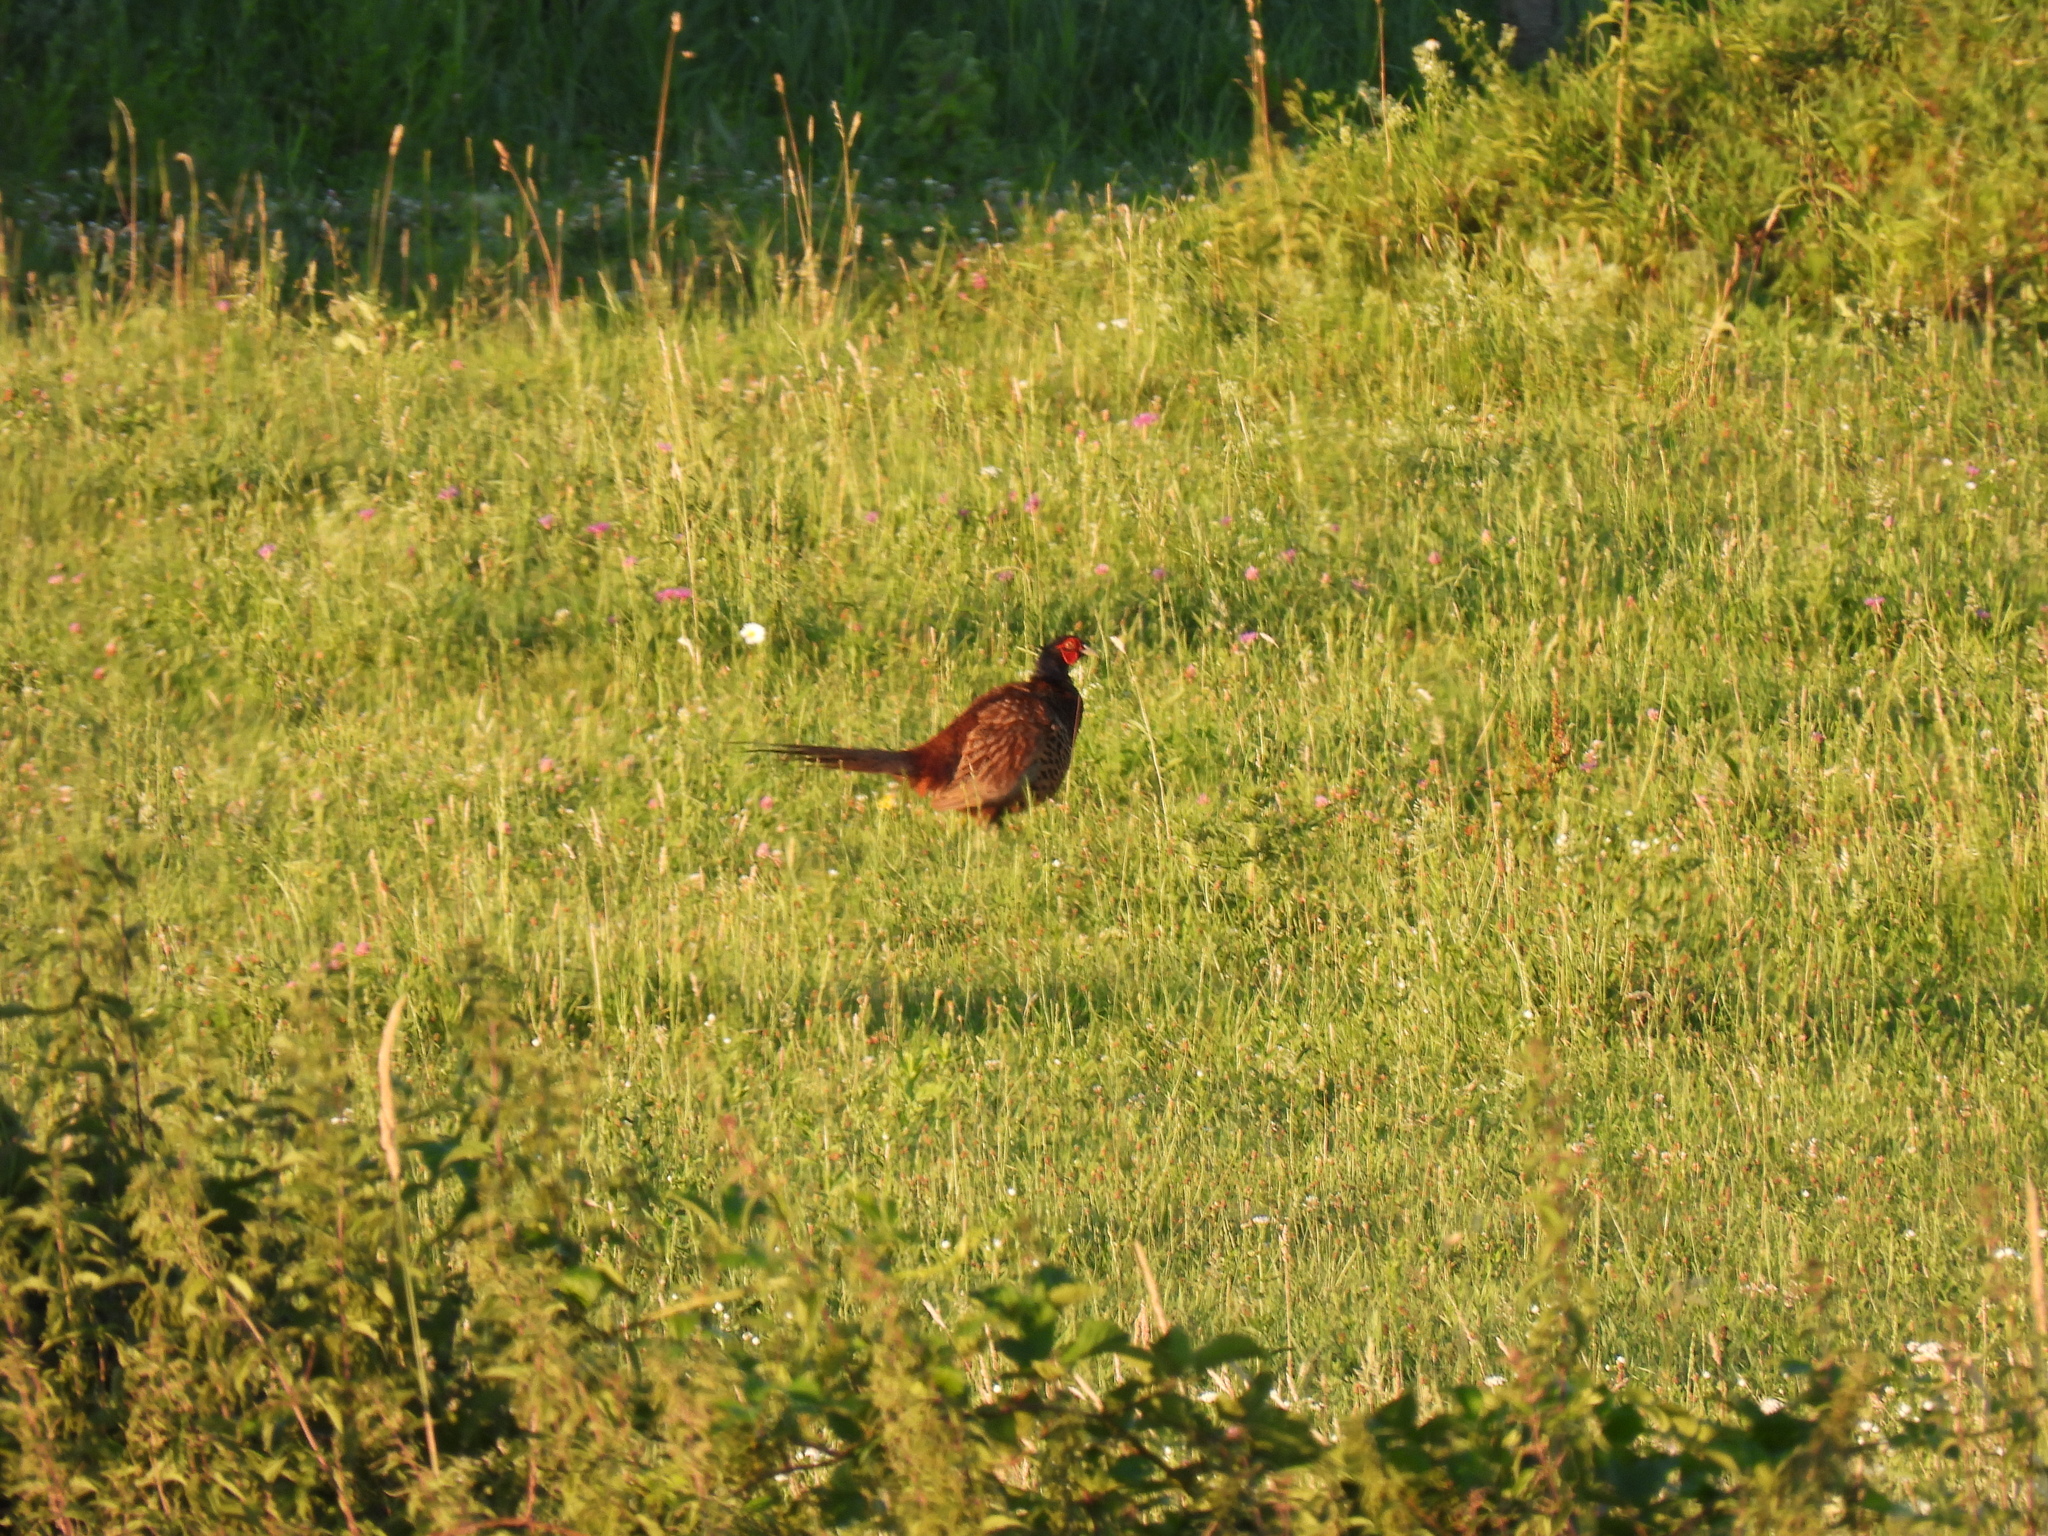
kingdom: Animalia
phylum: Chordata
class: Aves
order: Galliformes
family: Phasianidae
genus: Phasianus
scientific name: Phasianus colchicus
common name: Common pheasant
